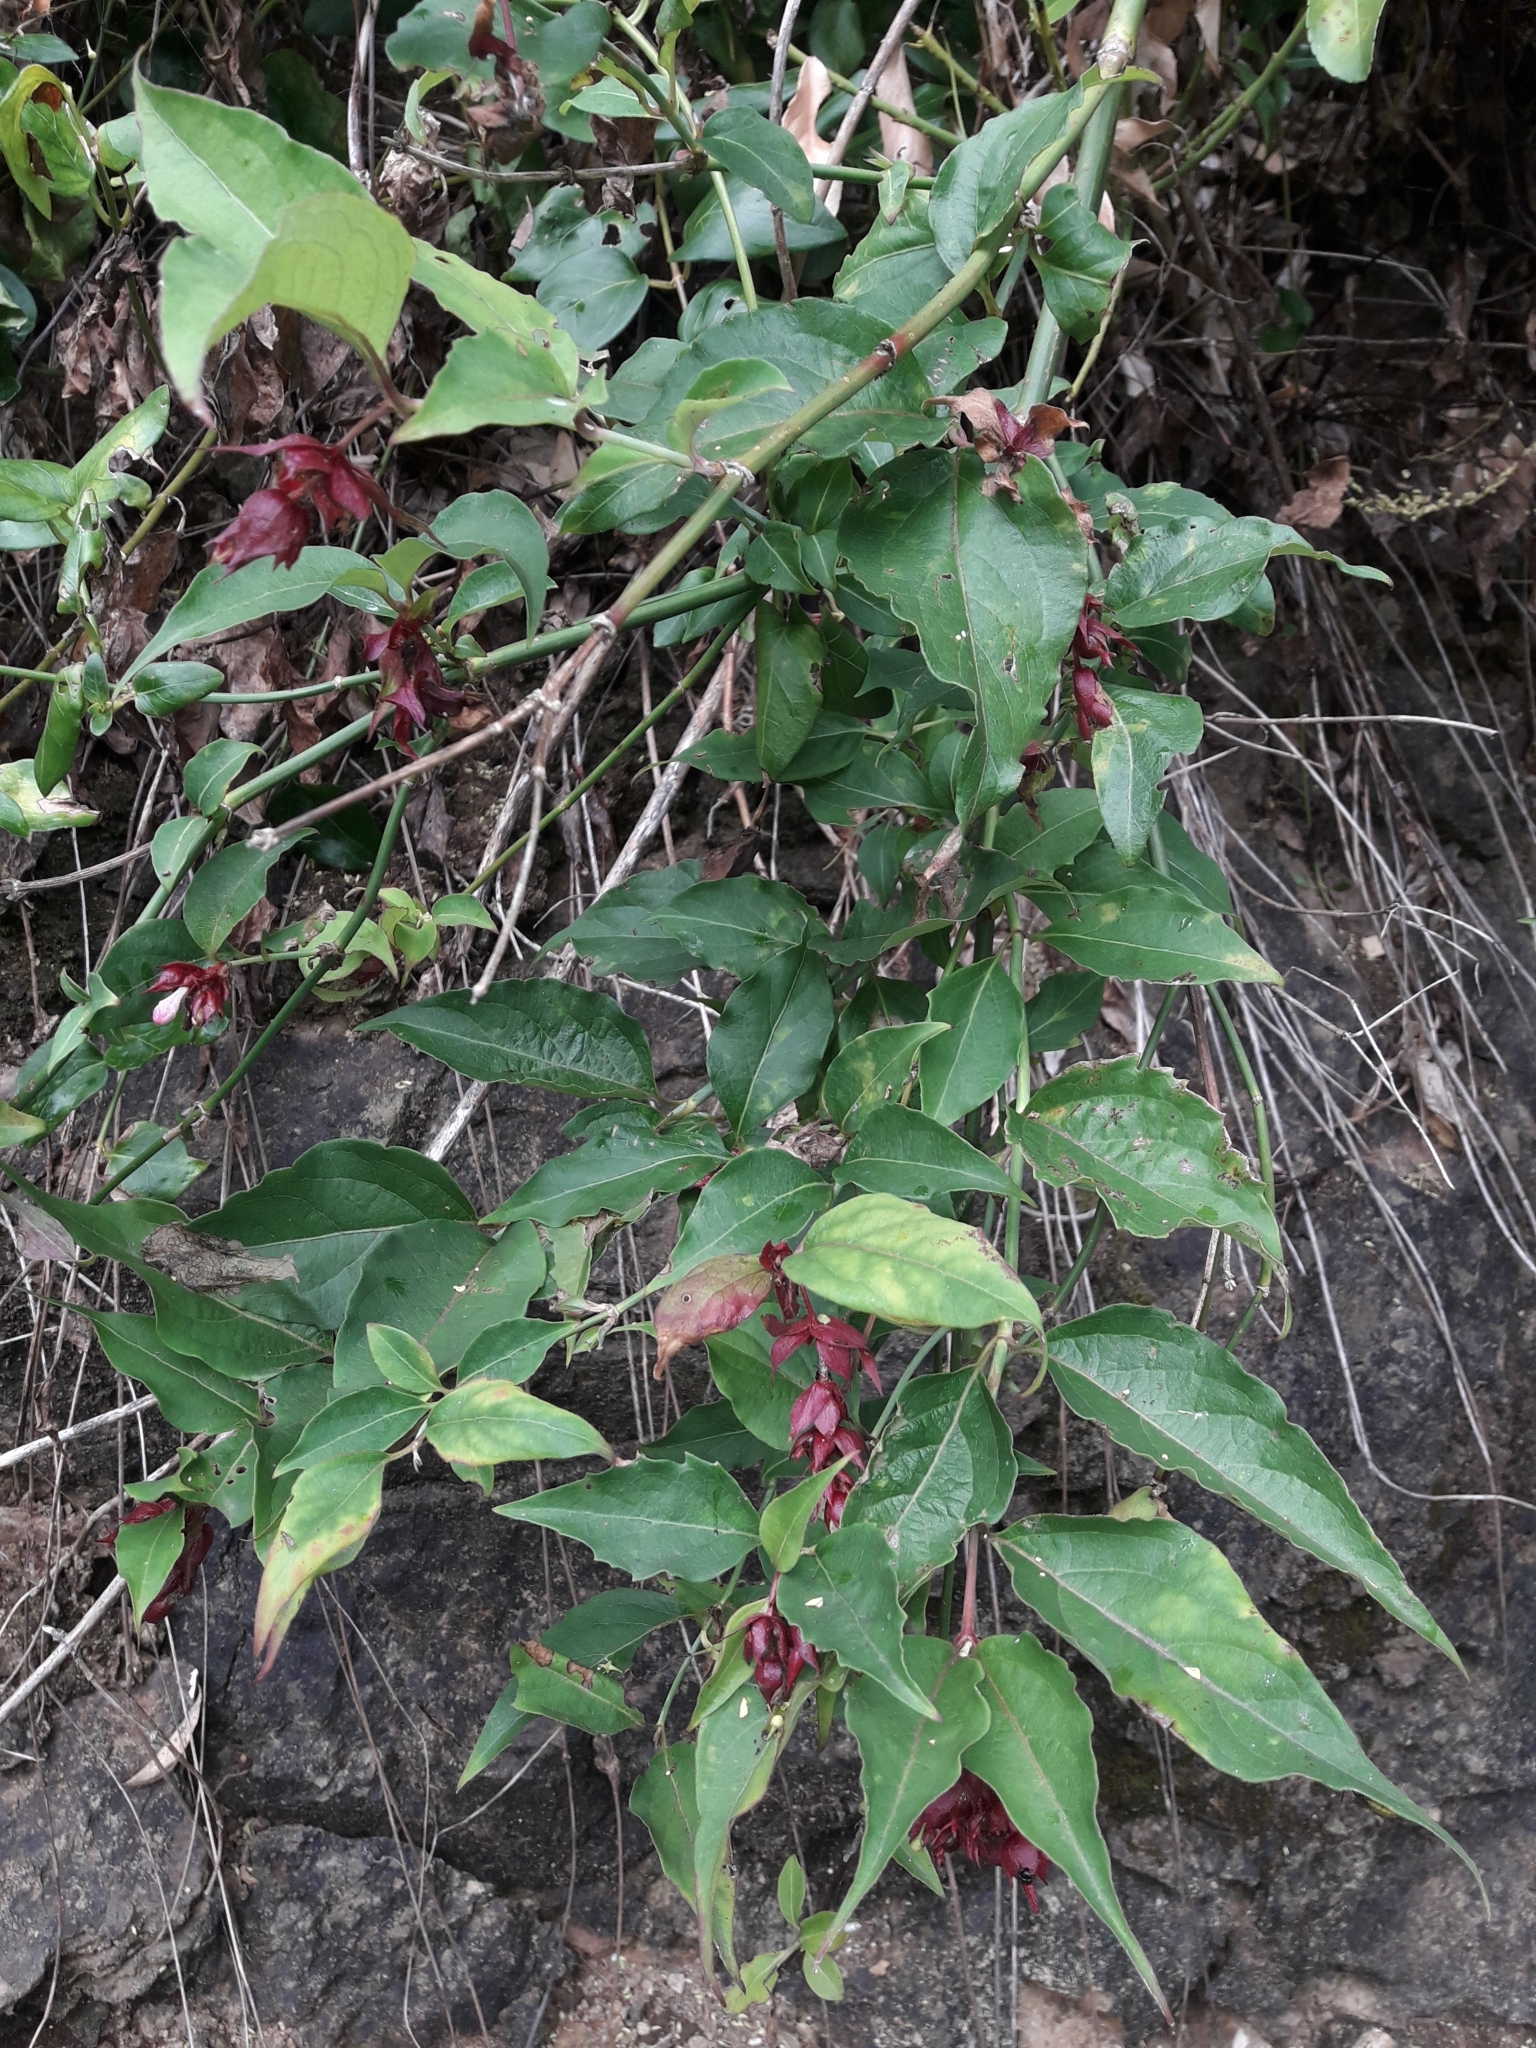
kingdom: Plantae
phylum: Tracheophyta
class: Magnoliopsida
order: Dipsacales
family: Caprifoliaceae
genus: Leycesteria
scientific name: Leycesteria formosa
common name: Himalayan honeysuckle
